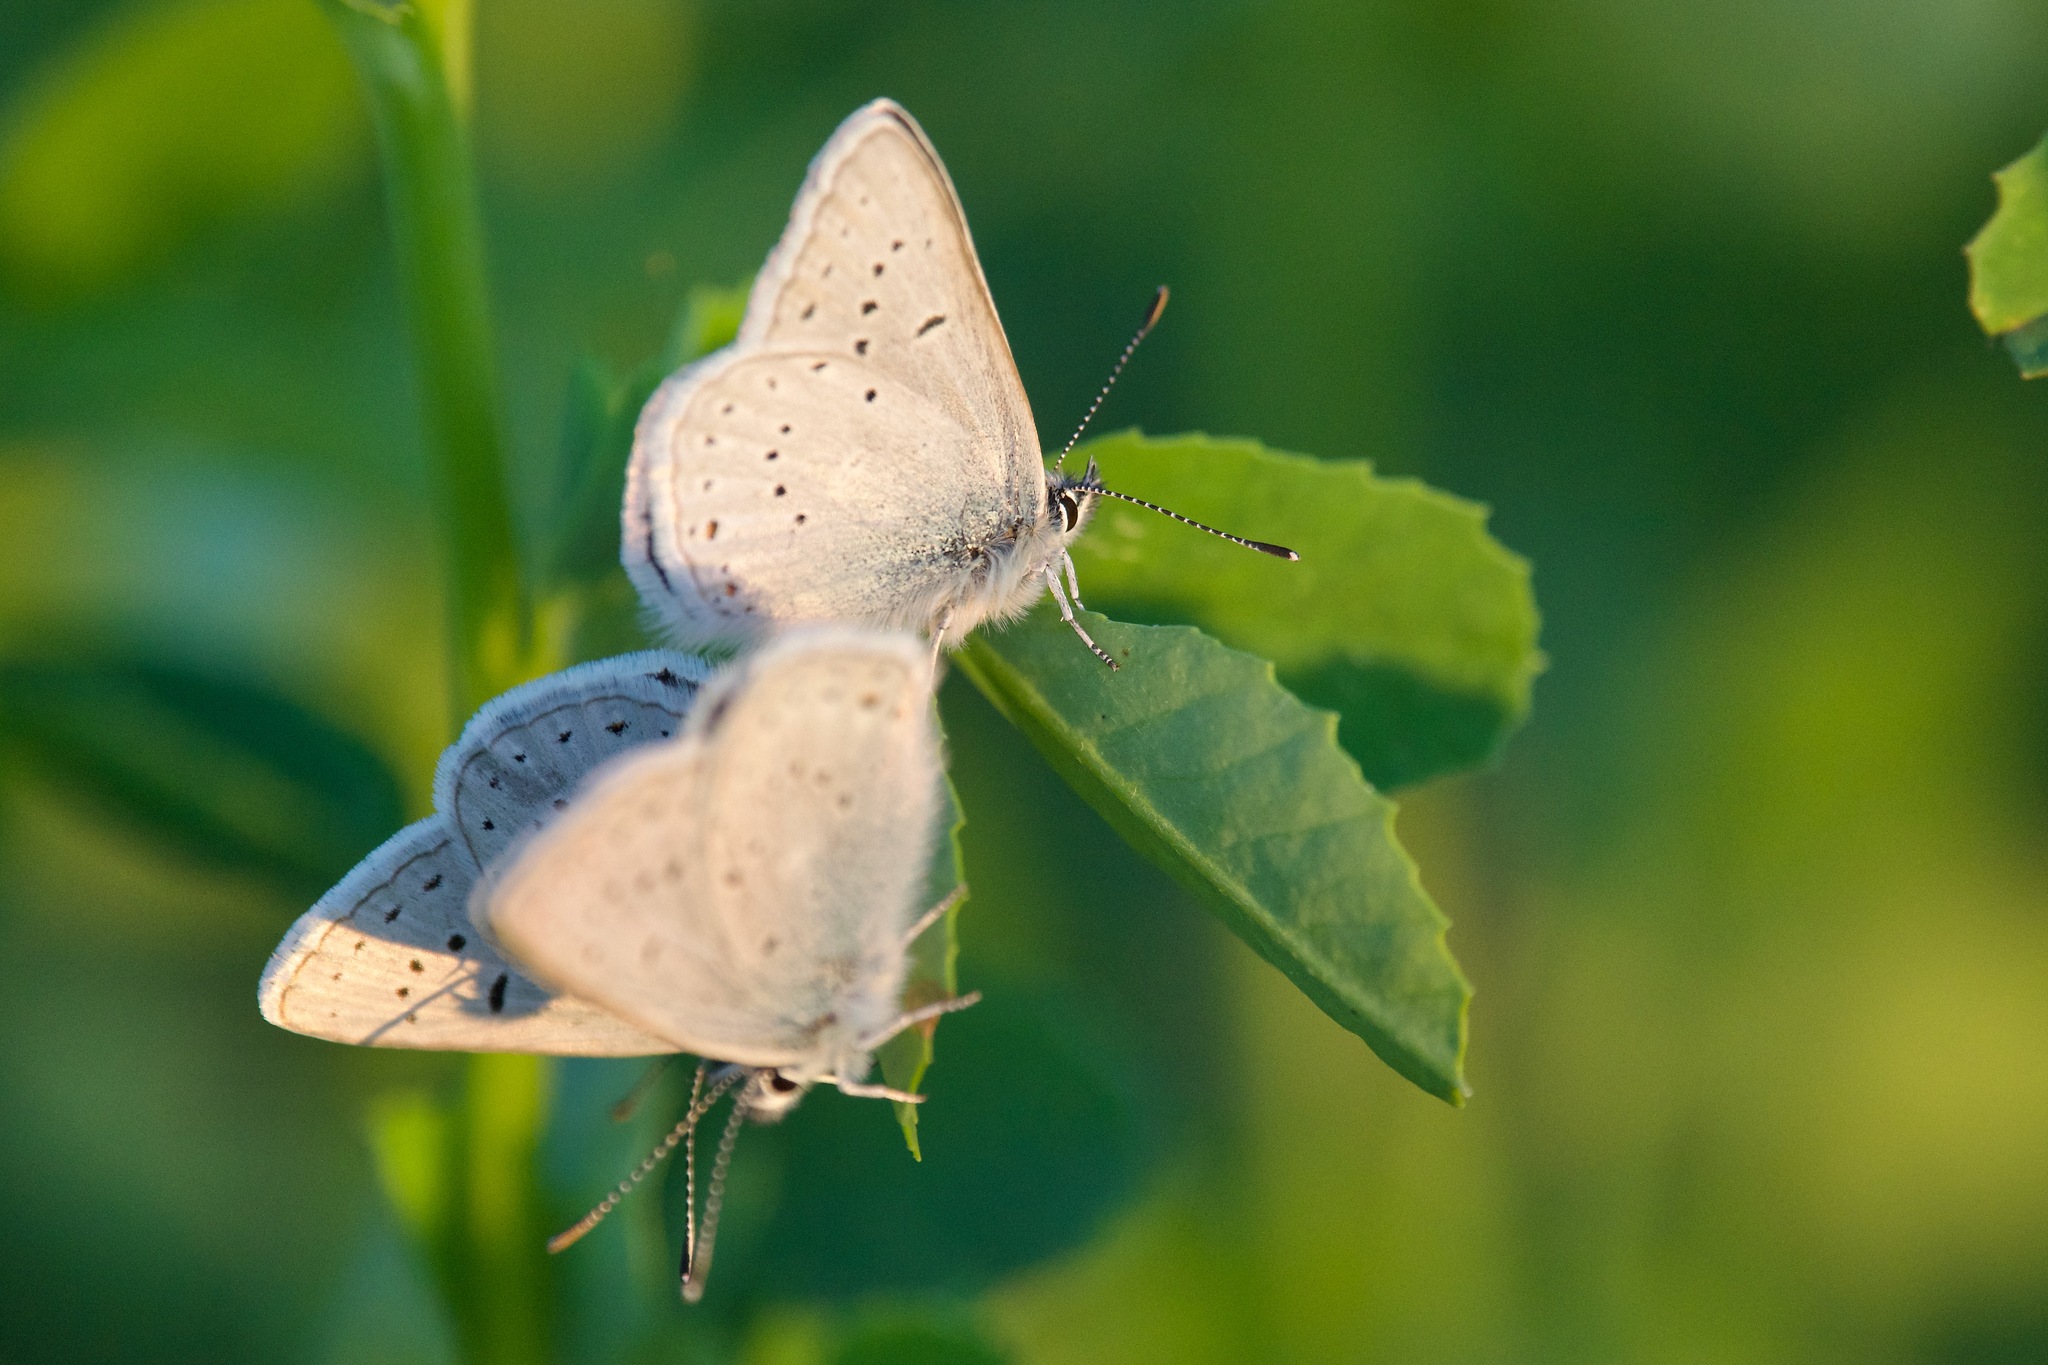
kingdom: Animalia
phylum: Arthropoda
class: Insecta
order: Lepidoptera
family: Lycaenidae
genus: Icaricia
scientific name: Icaricia saepiolus
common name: Greenish blue
